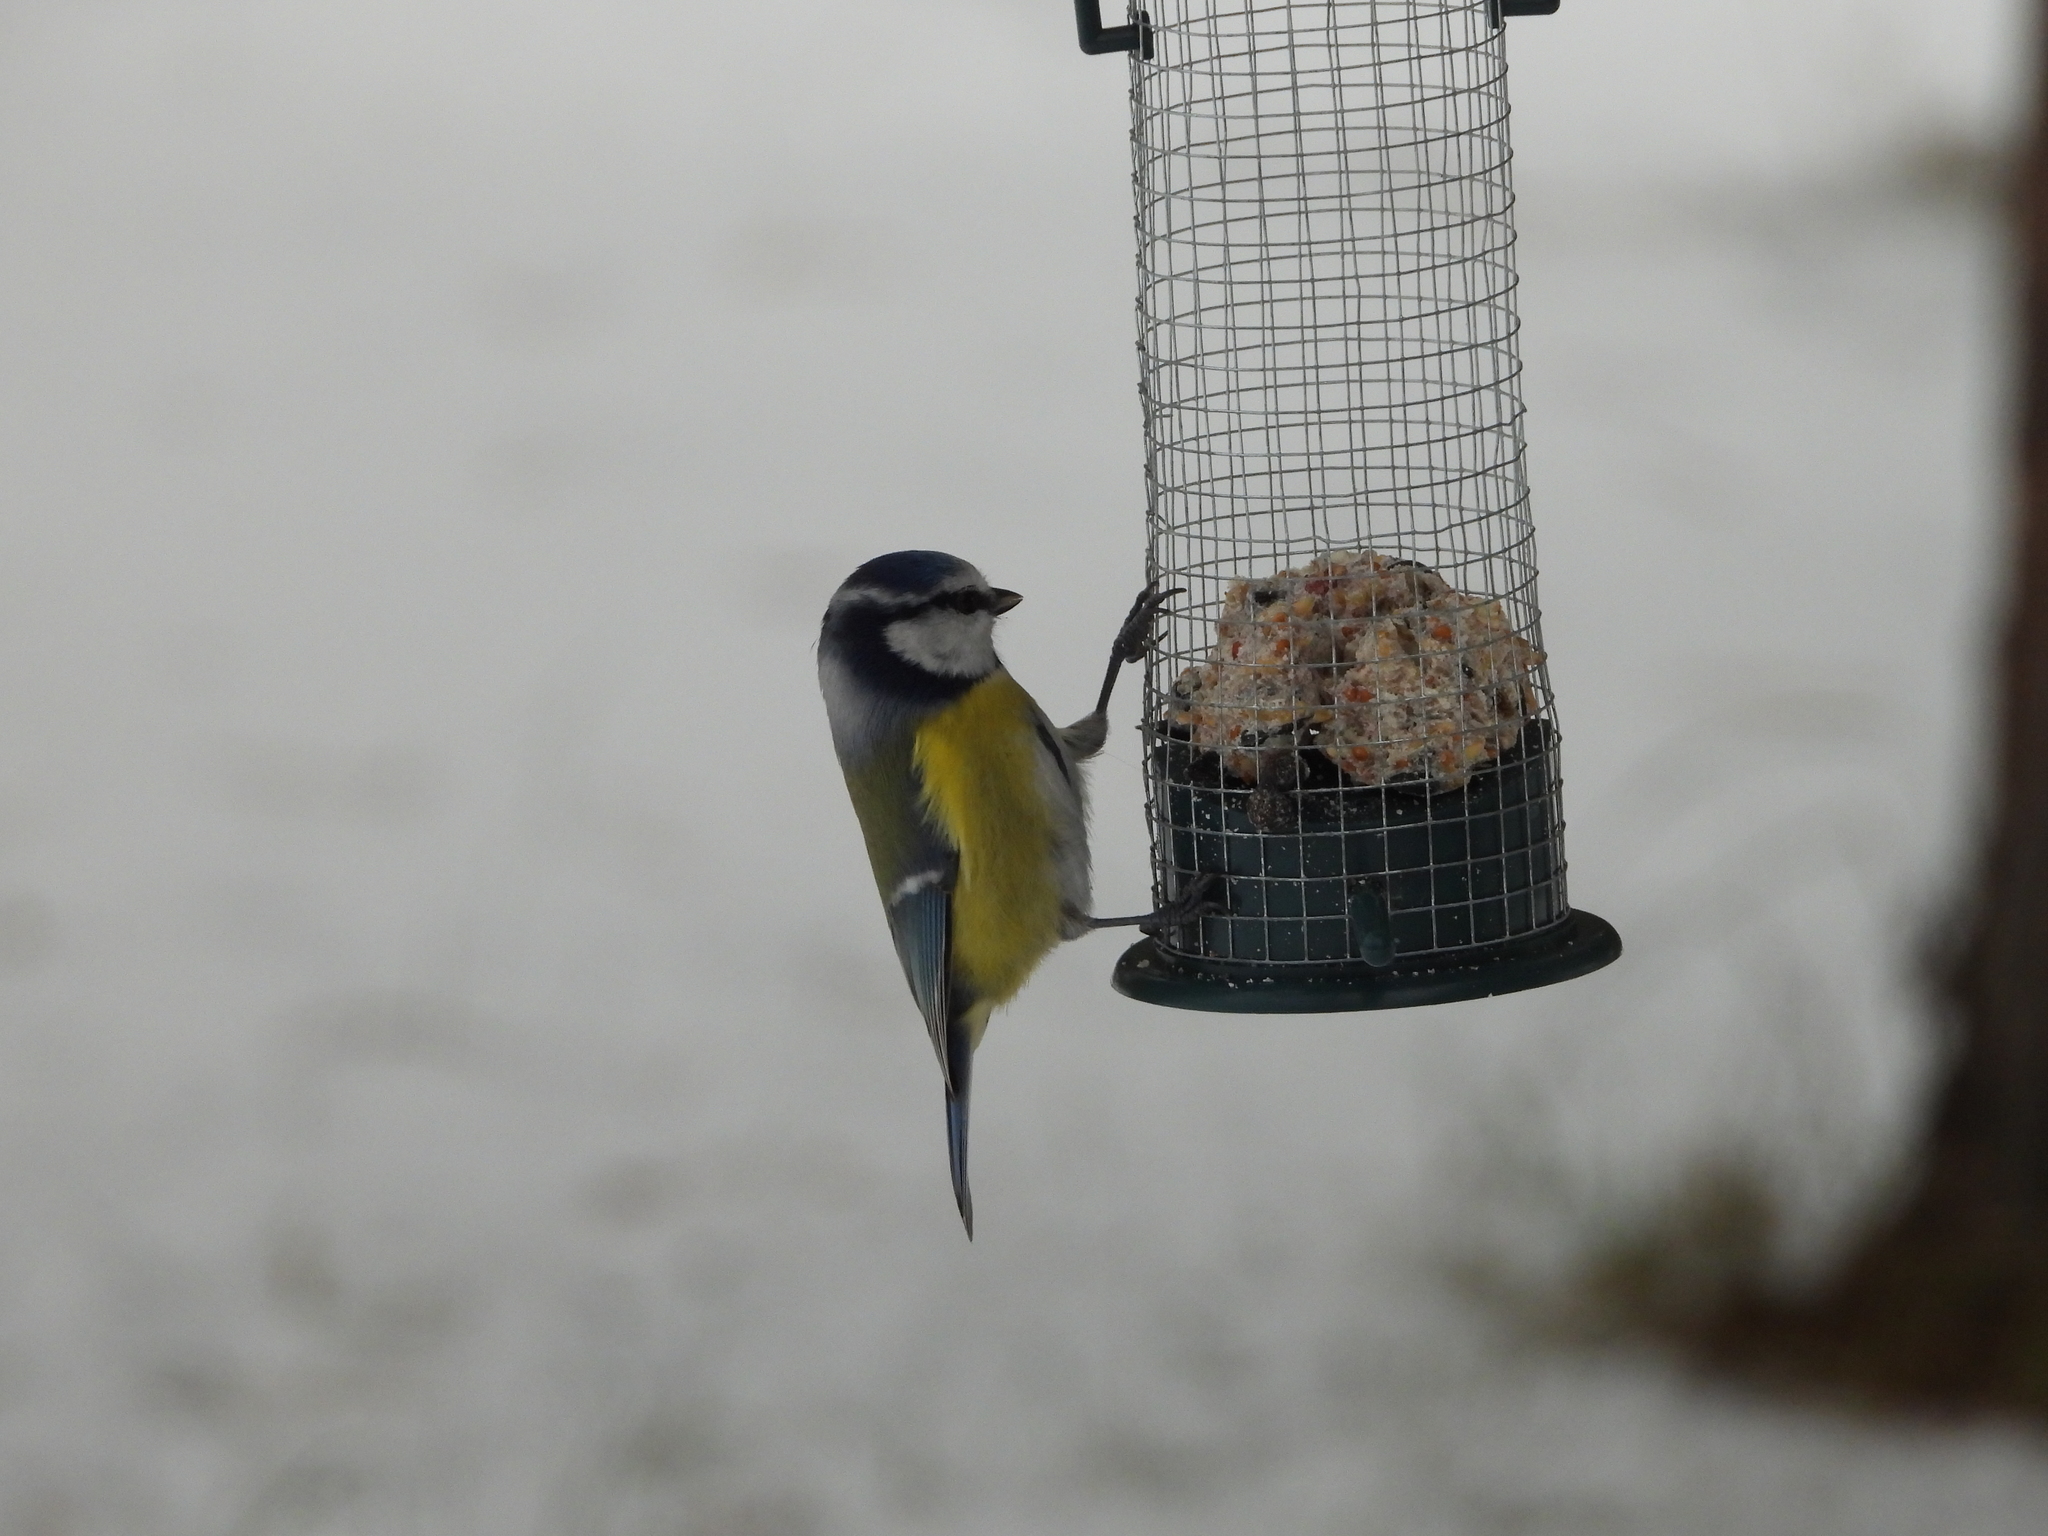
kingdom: Animalia
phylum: Chordata
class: Aves
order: Passeriformes
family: Paridae
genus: Cyanistes
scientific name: Cyanistes caeruleus
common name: Eurasian blue tit
